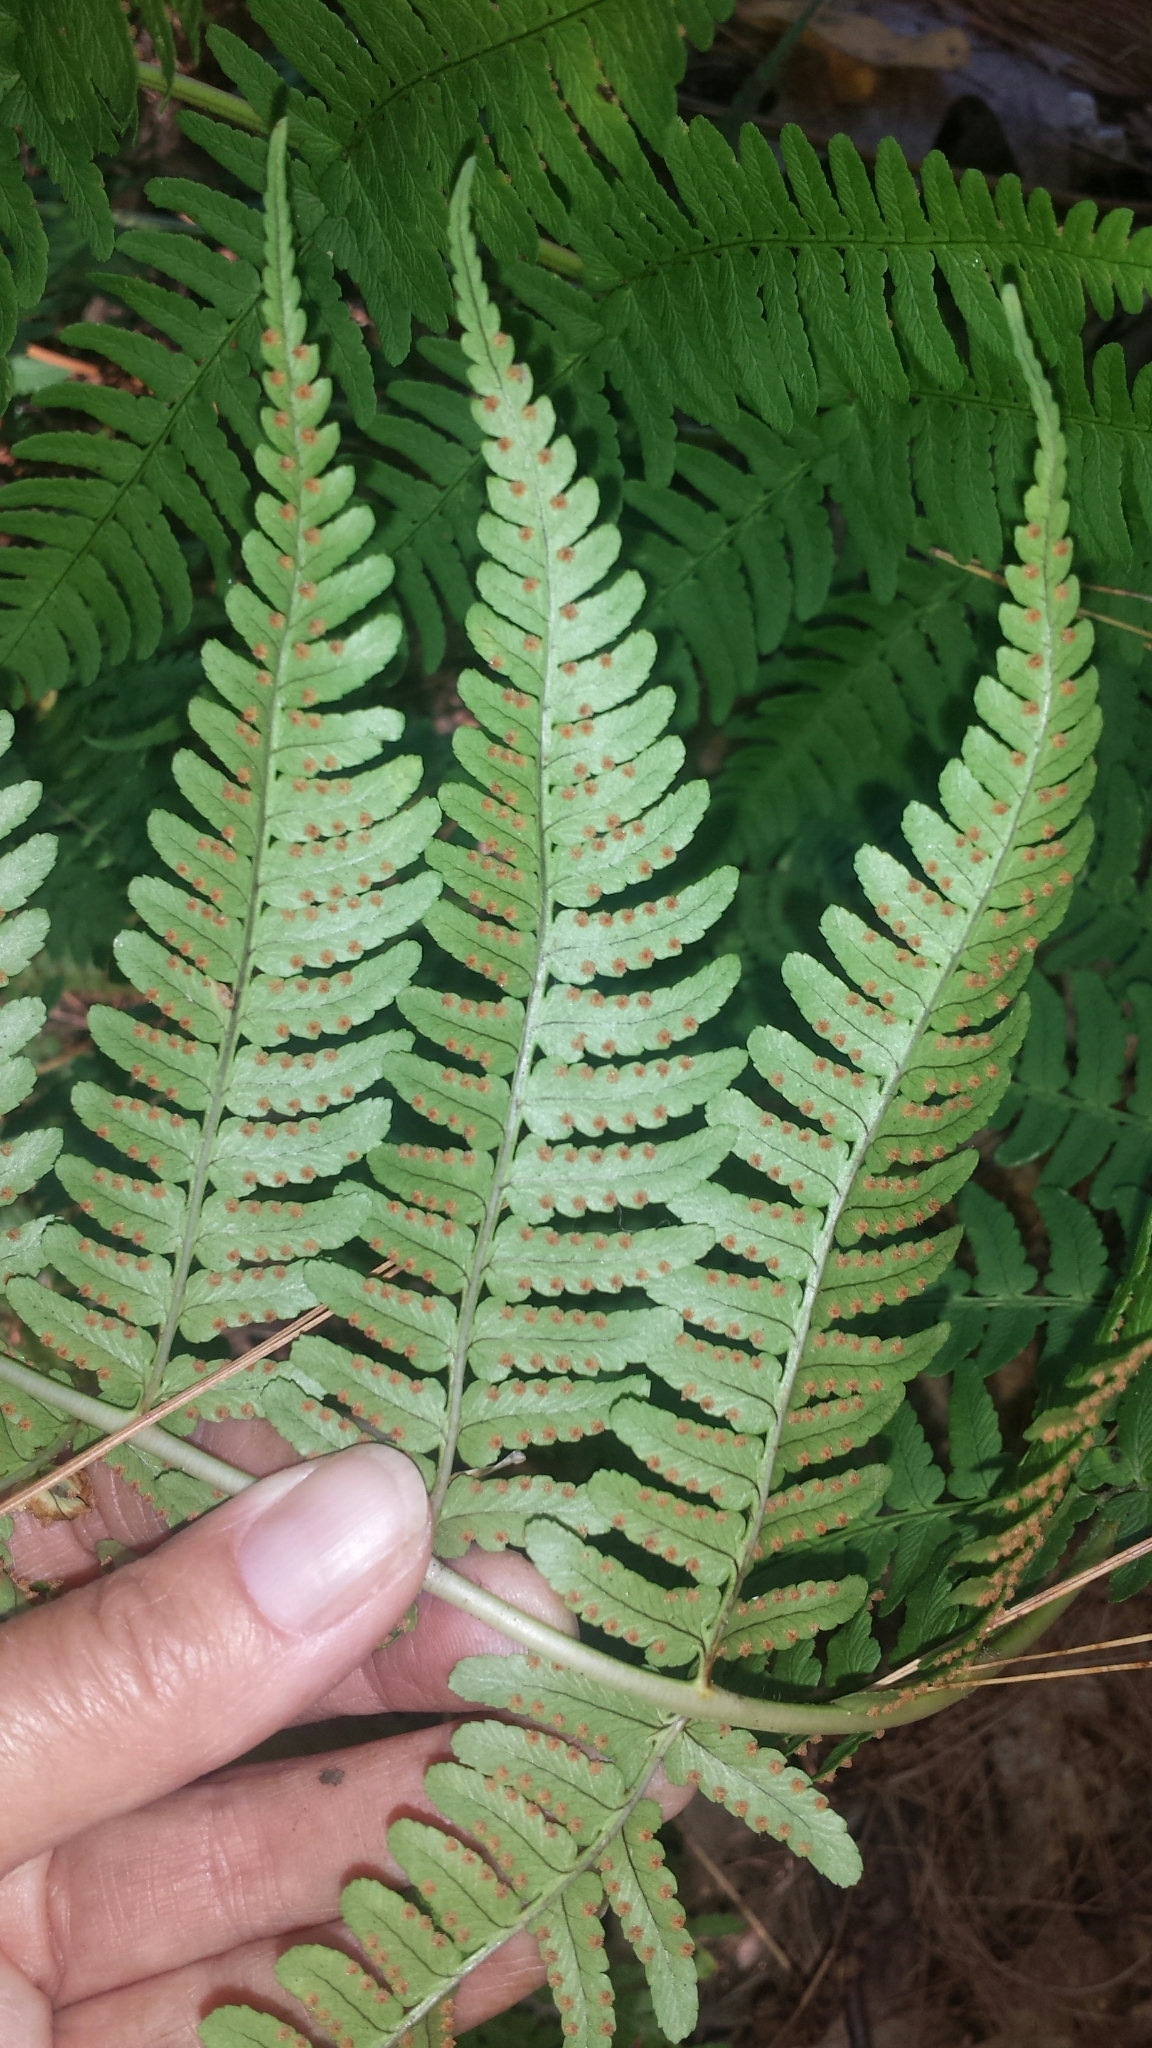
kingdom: Plantae
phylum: Tracheophyta
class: Polypodiopsida
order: Polypodiales
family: Dryopteridaceae
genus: Dryopteris
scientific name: Dryopteris marginalis
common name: Marginal wood fern
